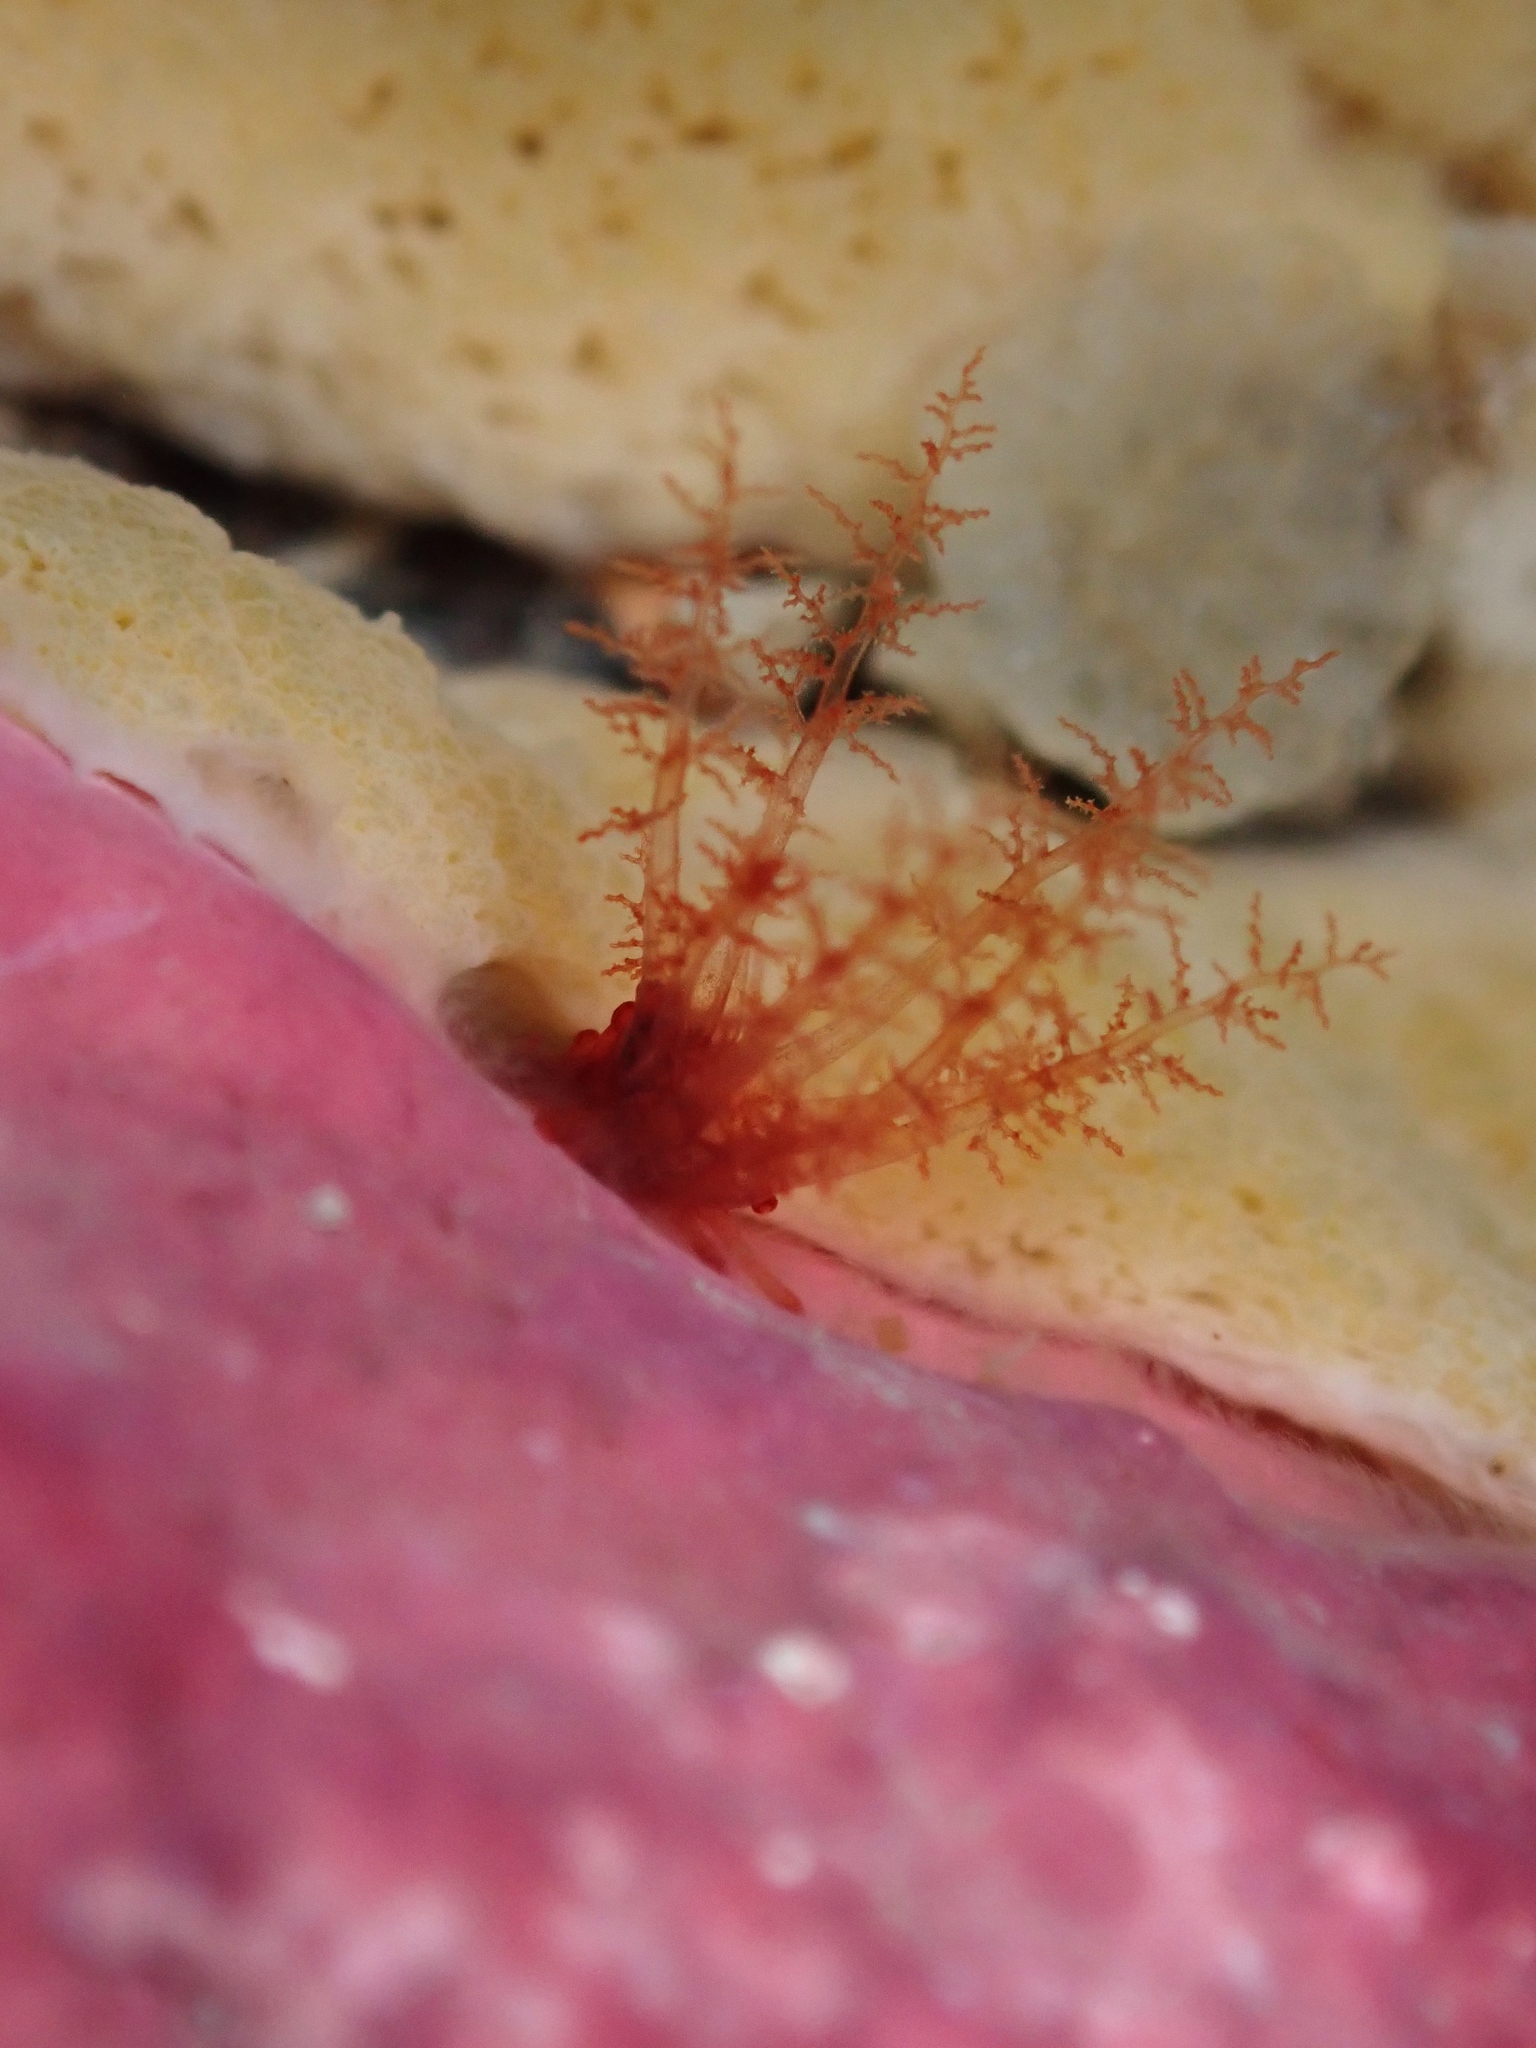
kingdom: Animalia
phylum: Echinodermata
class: Holothuroidea
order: Dendrochirotida
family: Cucumariidae
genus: Squamocnus
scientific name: Squamocnus brevidentis
